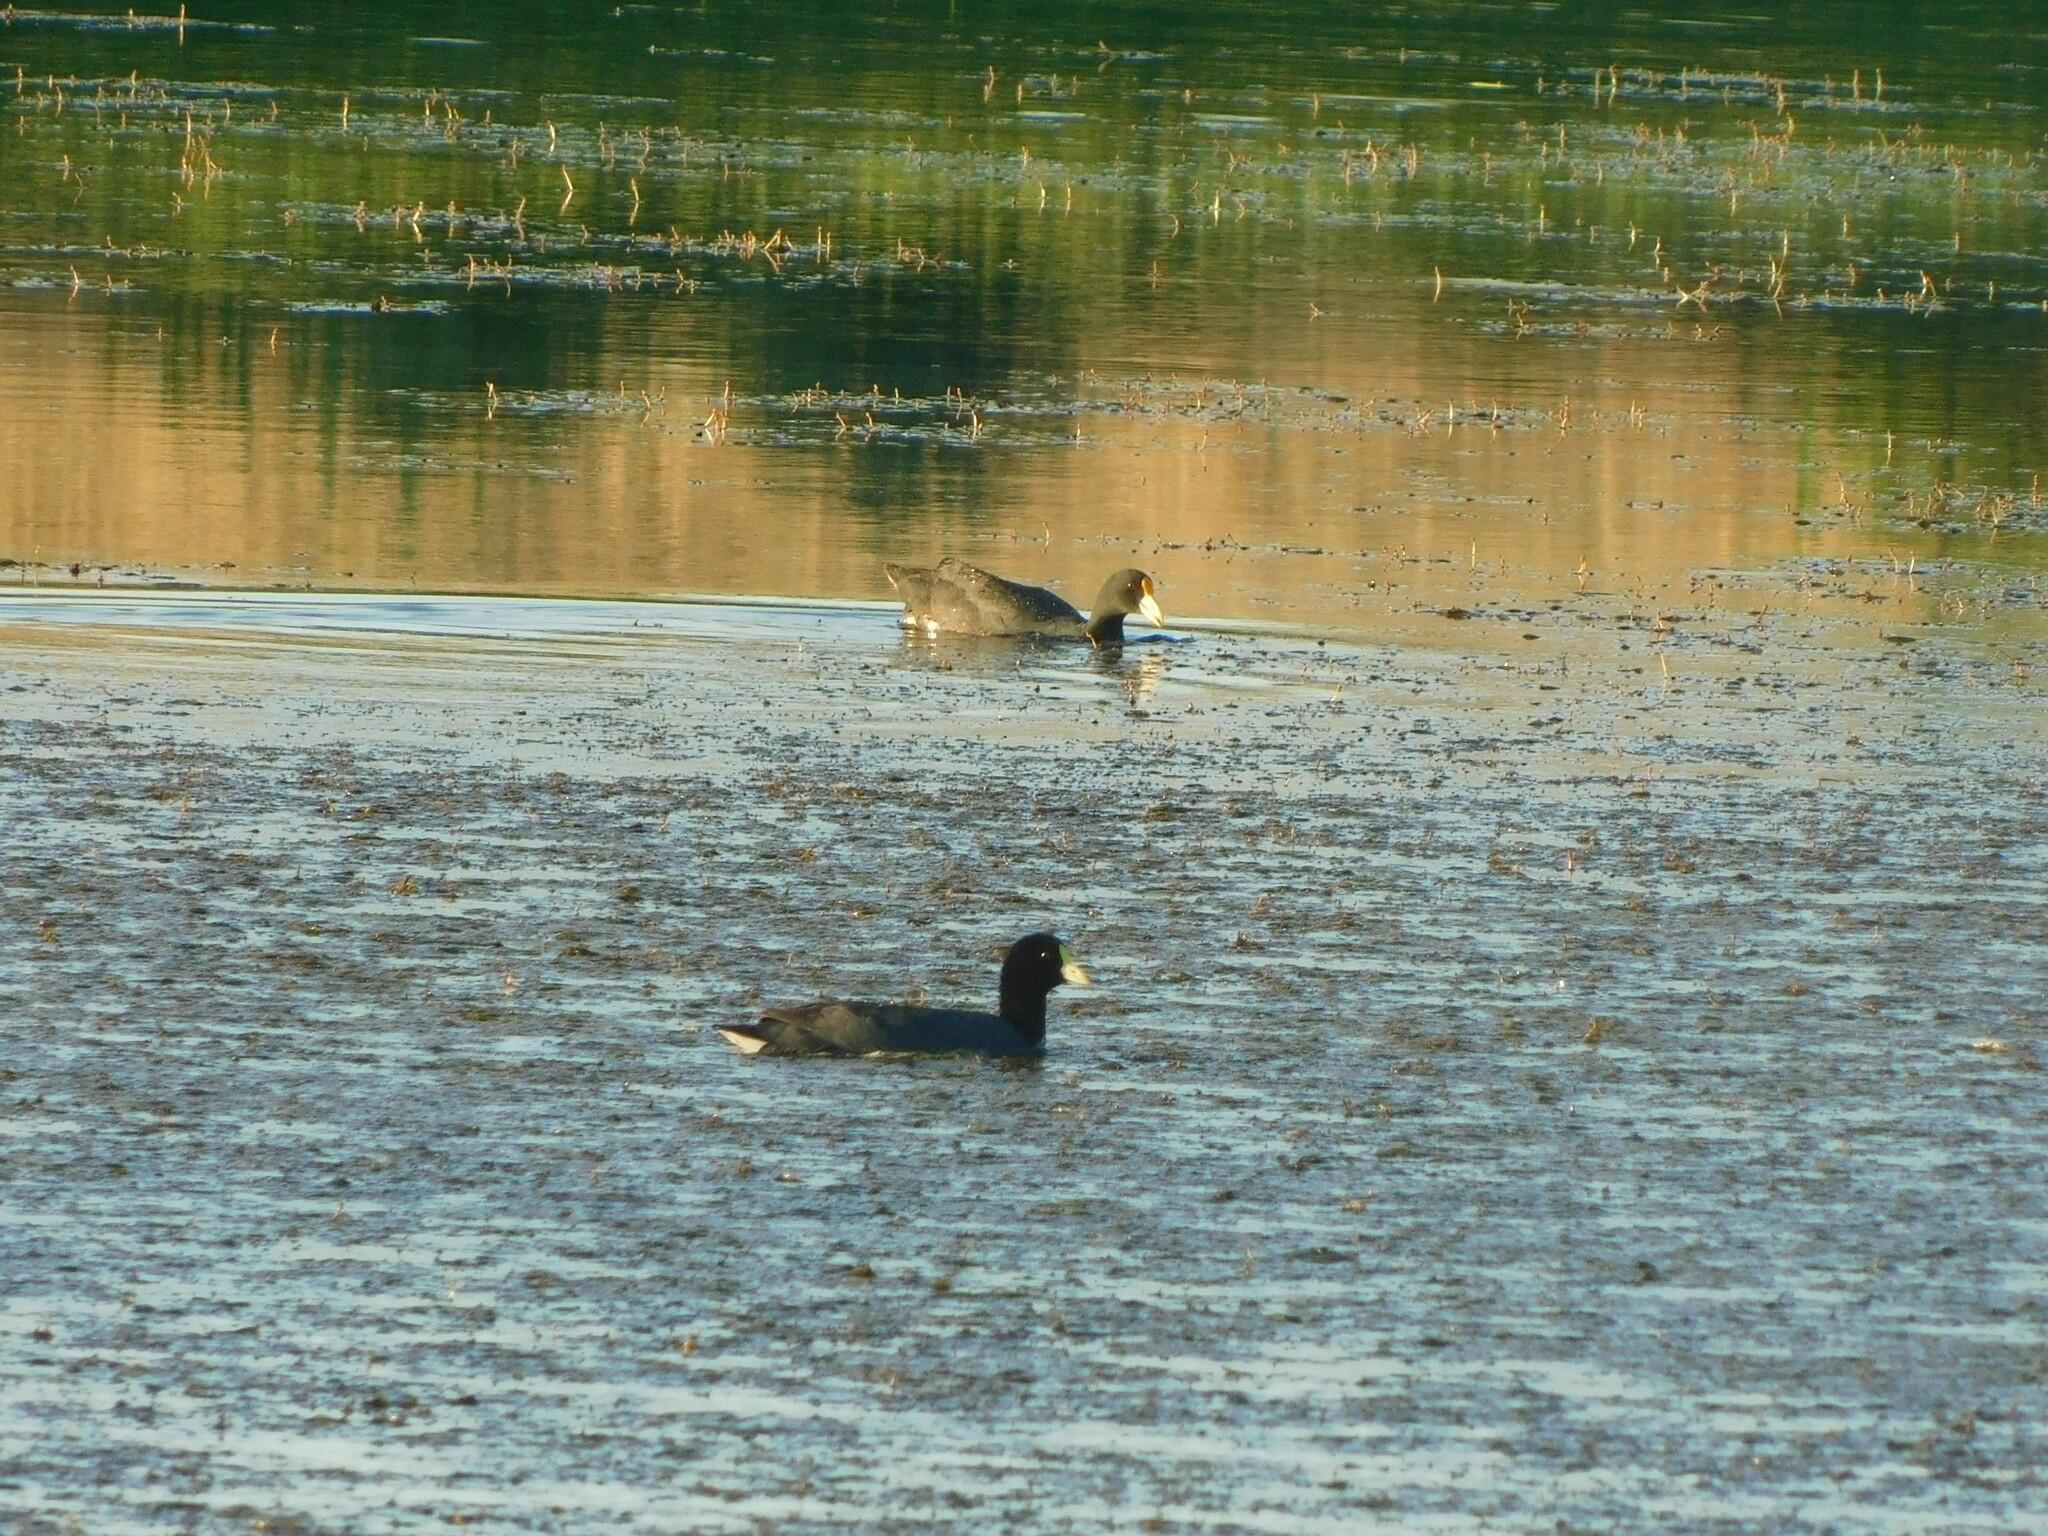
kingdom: Animalia
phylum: Chordata
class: Aves
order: Gruiformes
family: Rallidae
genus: Fulica
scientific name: Fulica leucoptera
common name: White-winged coot
